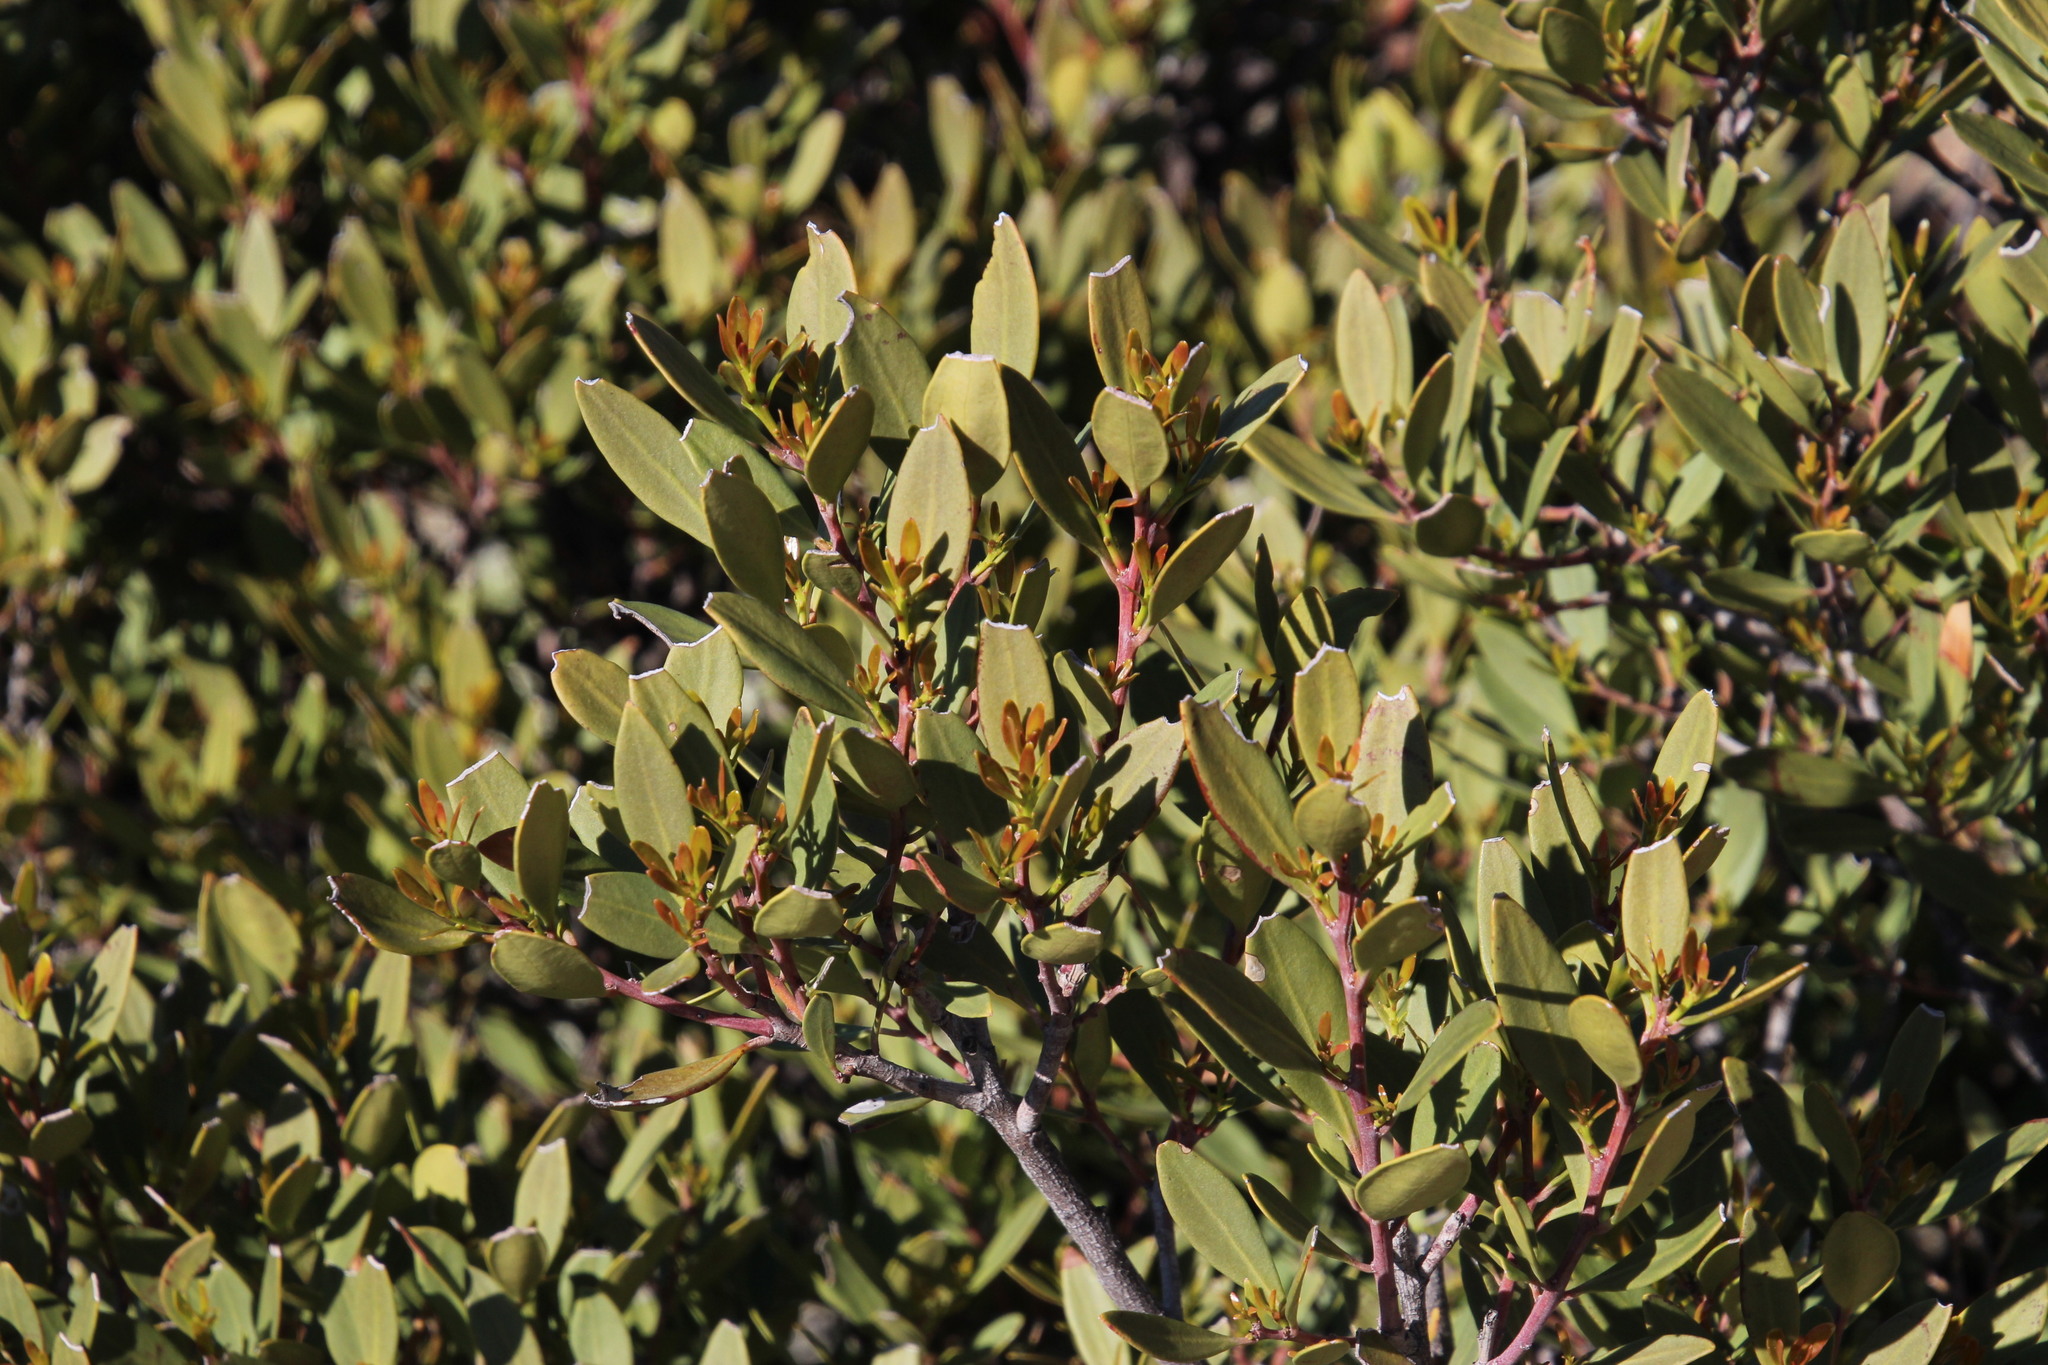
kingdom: Plantae
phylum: Tracheophyta
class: Magnoliopsida
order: Celastrales
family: Celastraceae
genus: Gymnosporia
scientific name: Gymnosporia laurina
